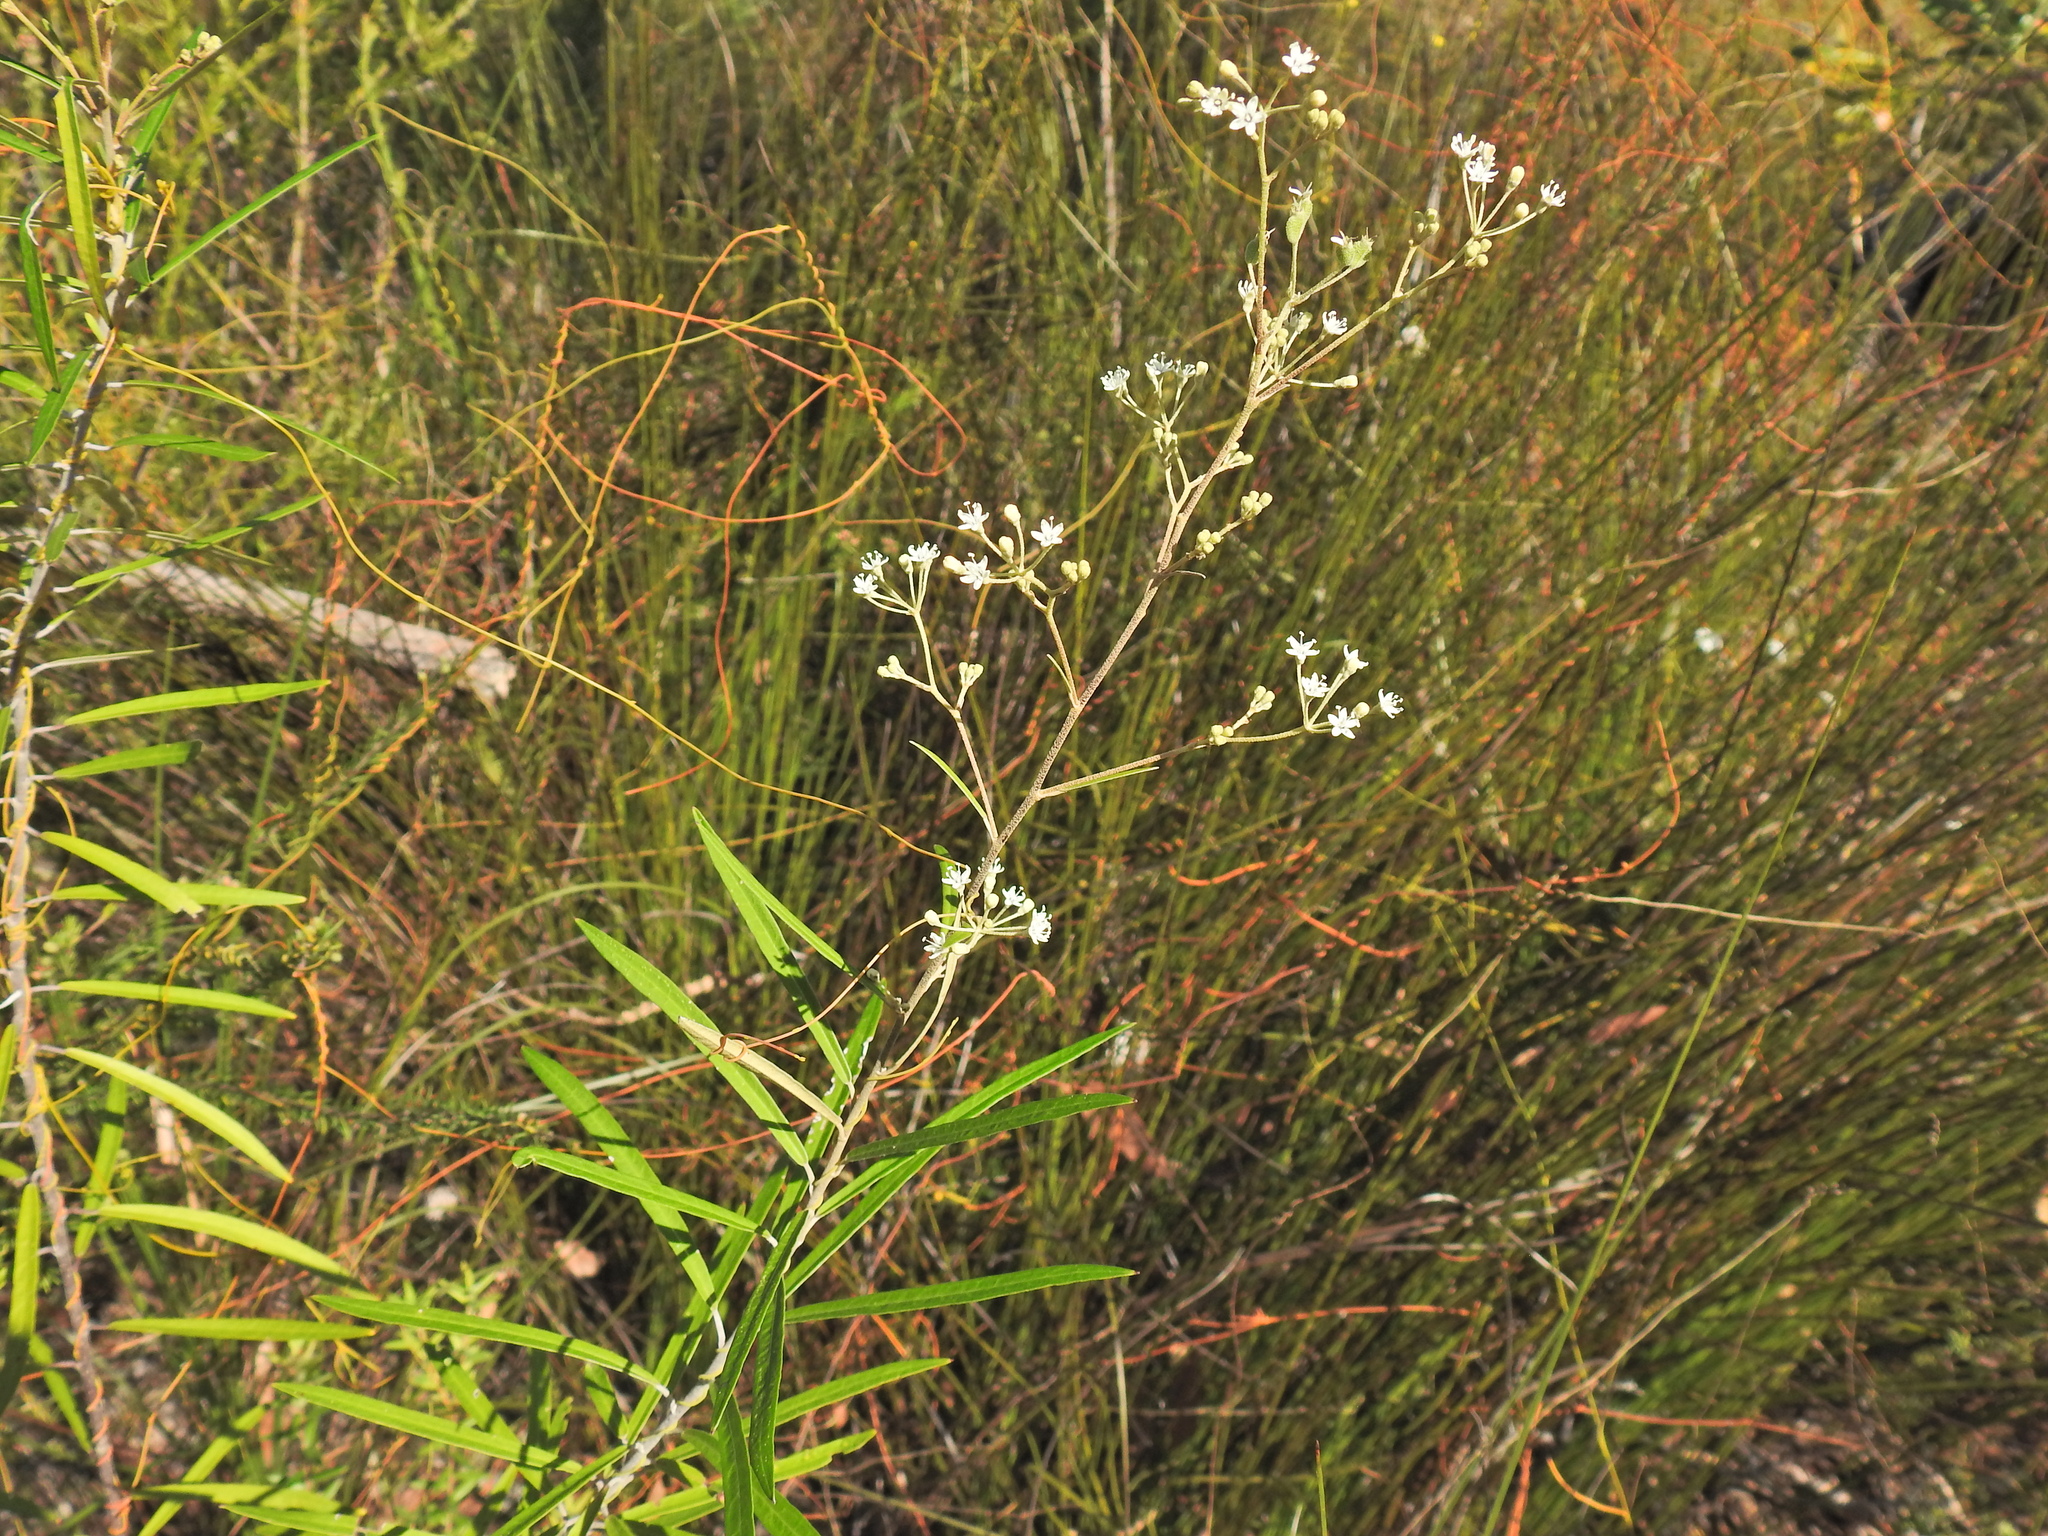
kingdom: Plantae
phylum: Tracheophyta
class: Magnoliopsida
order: Apiales
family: Araliaceae
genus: Astrotricha
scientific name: Astrotricha longifolia
